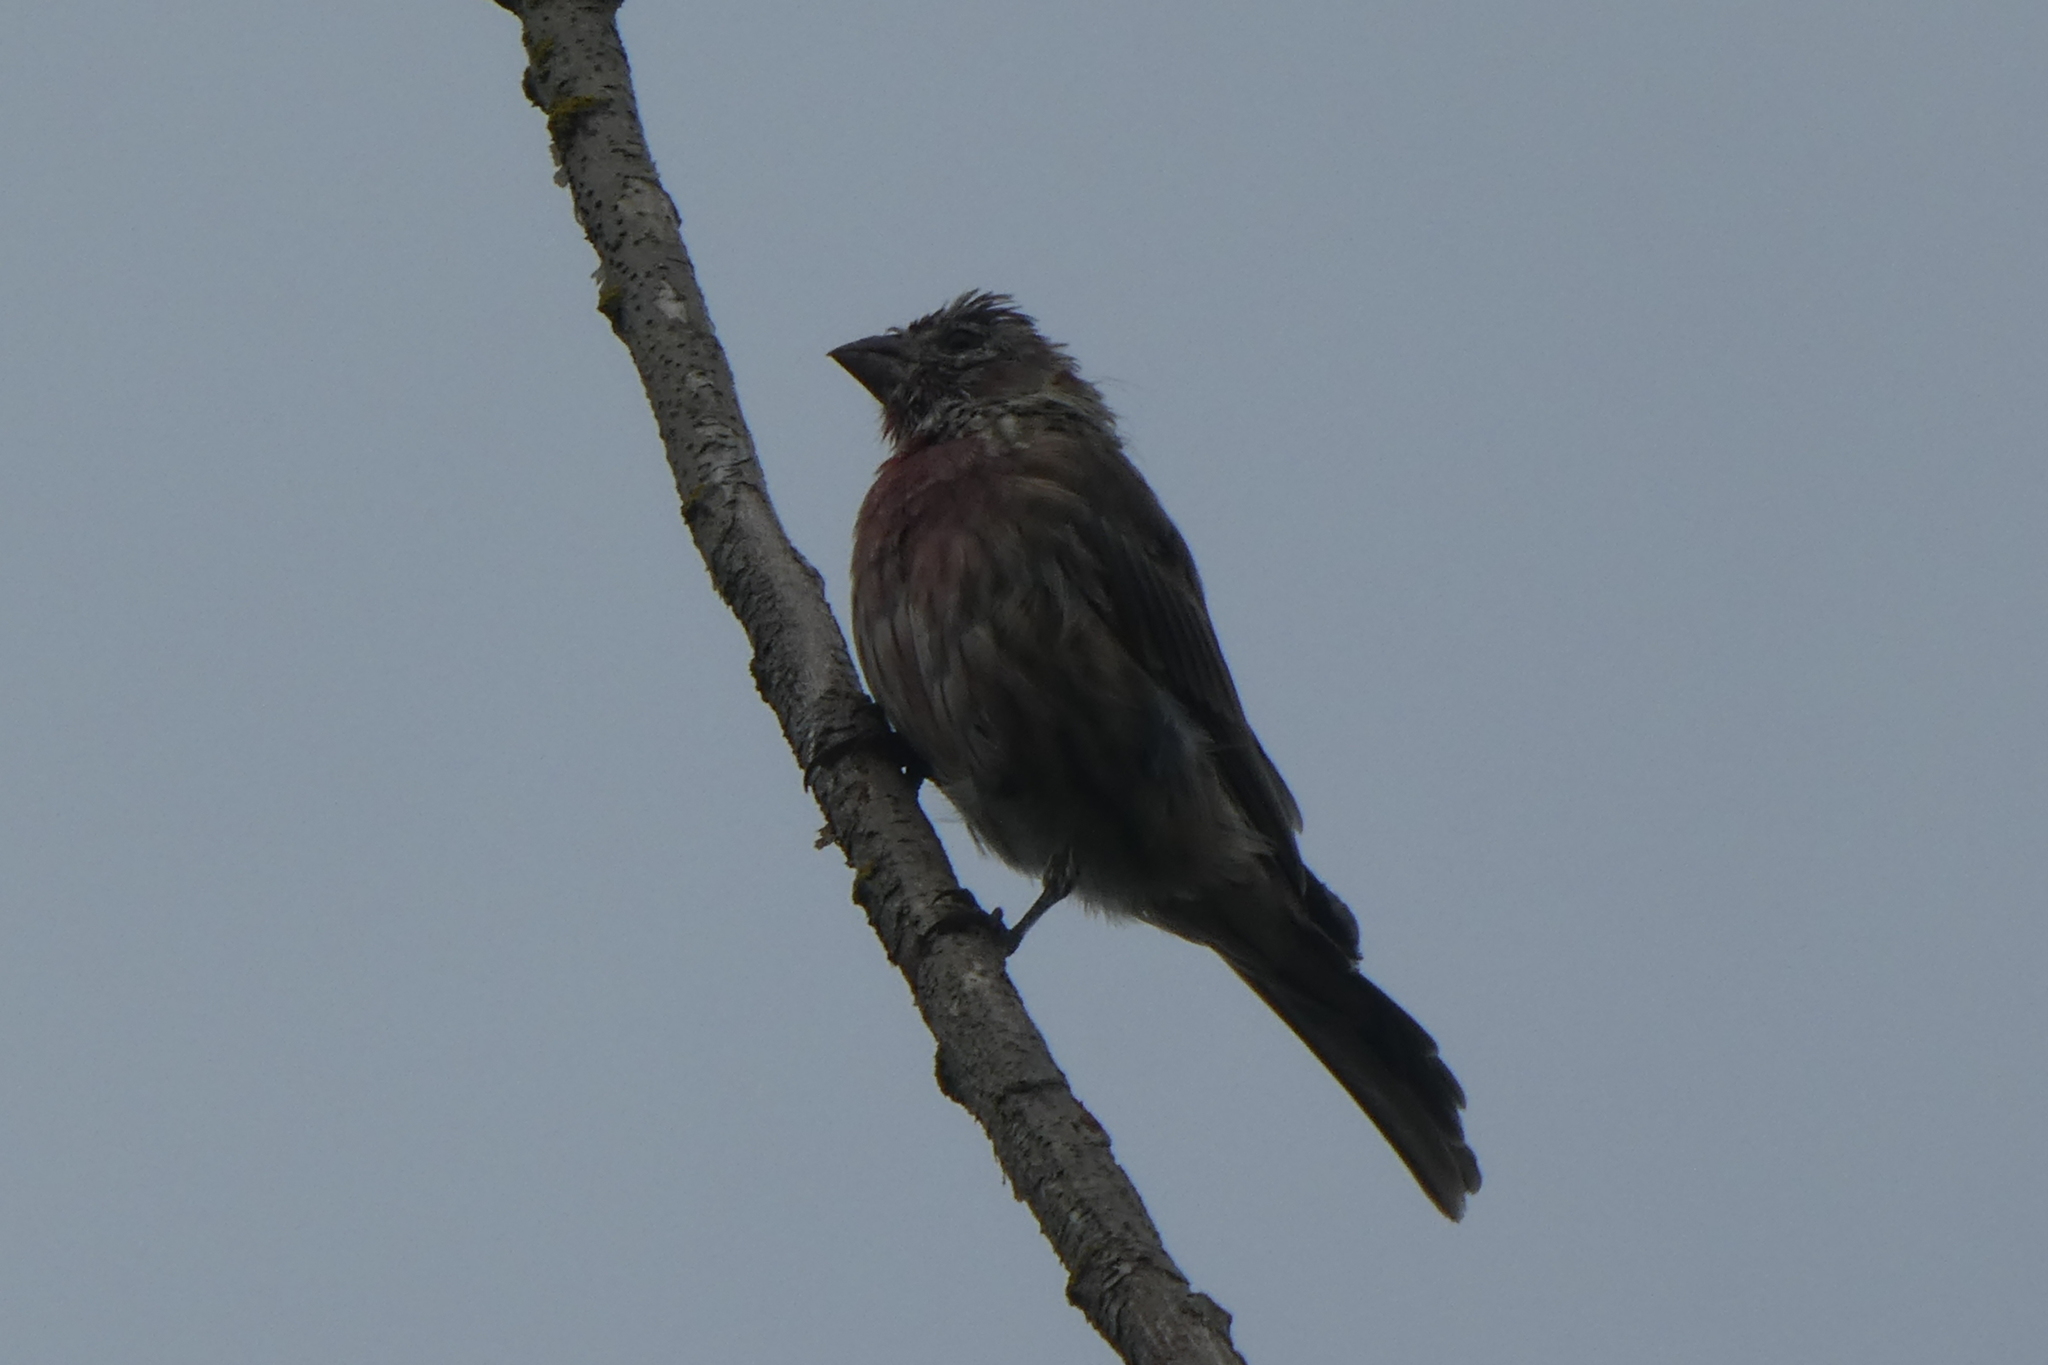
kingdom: Animalia
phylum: Chordata
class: Aves
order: Passeriformes
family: Fringillidae
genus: Haemorhous
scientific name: Haemorhous mexicanus
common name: House finch
